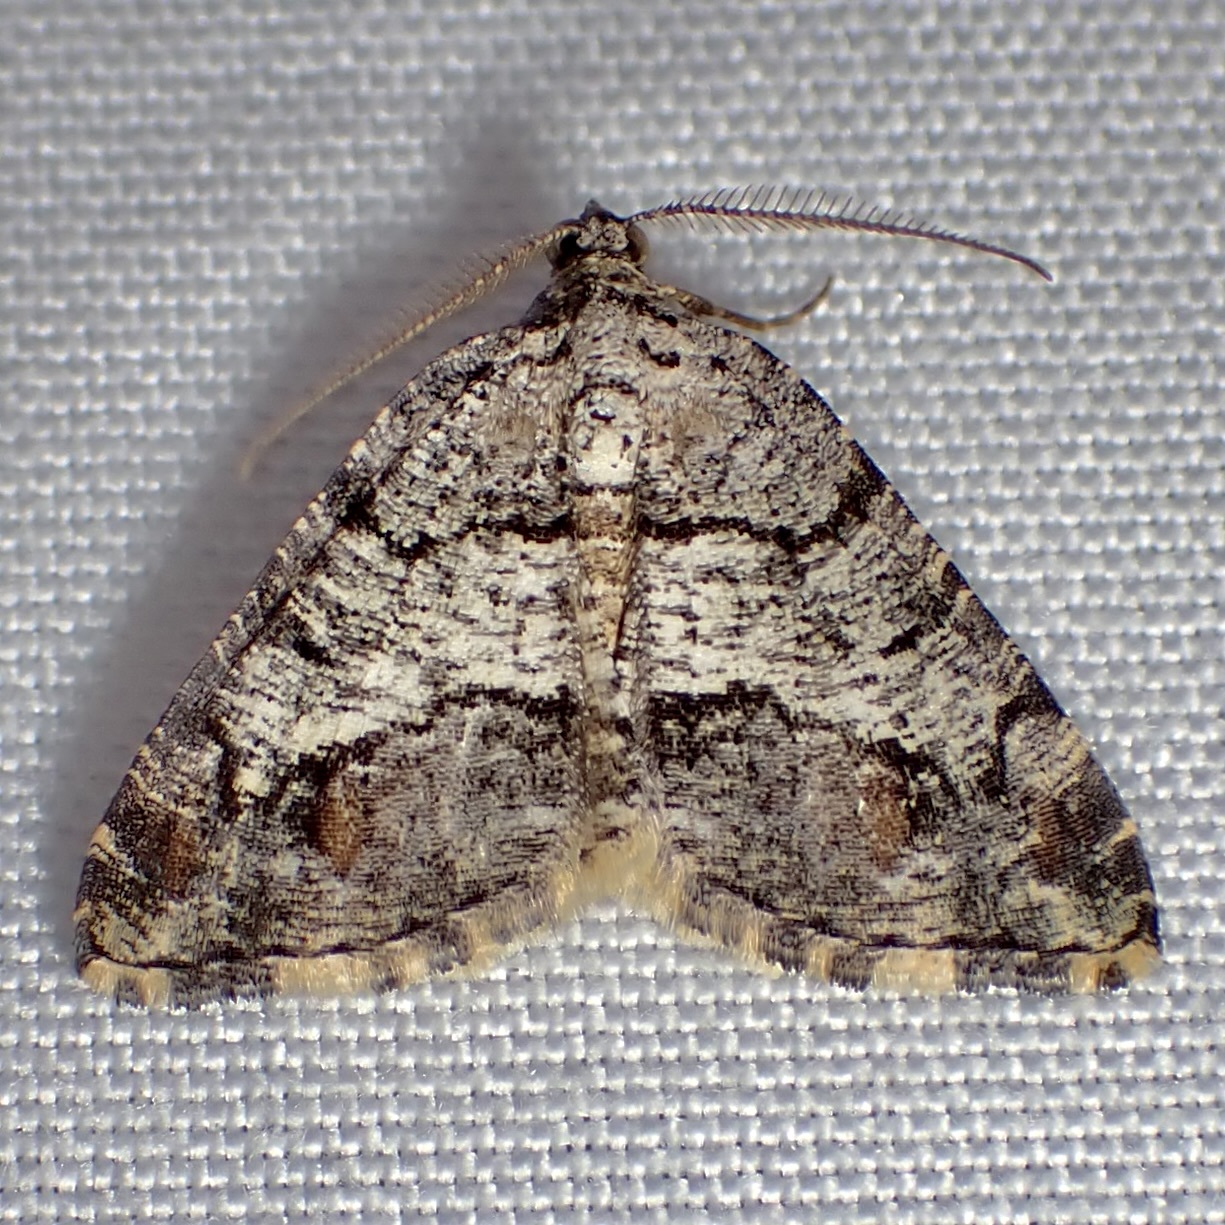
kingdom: Animalia
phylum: Arthropoda
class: Insecta
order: Lepidoptera
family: Geometridae
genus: Macaria
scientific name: Macaria deceptrix
